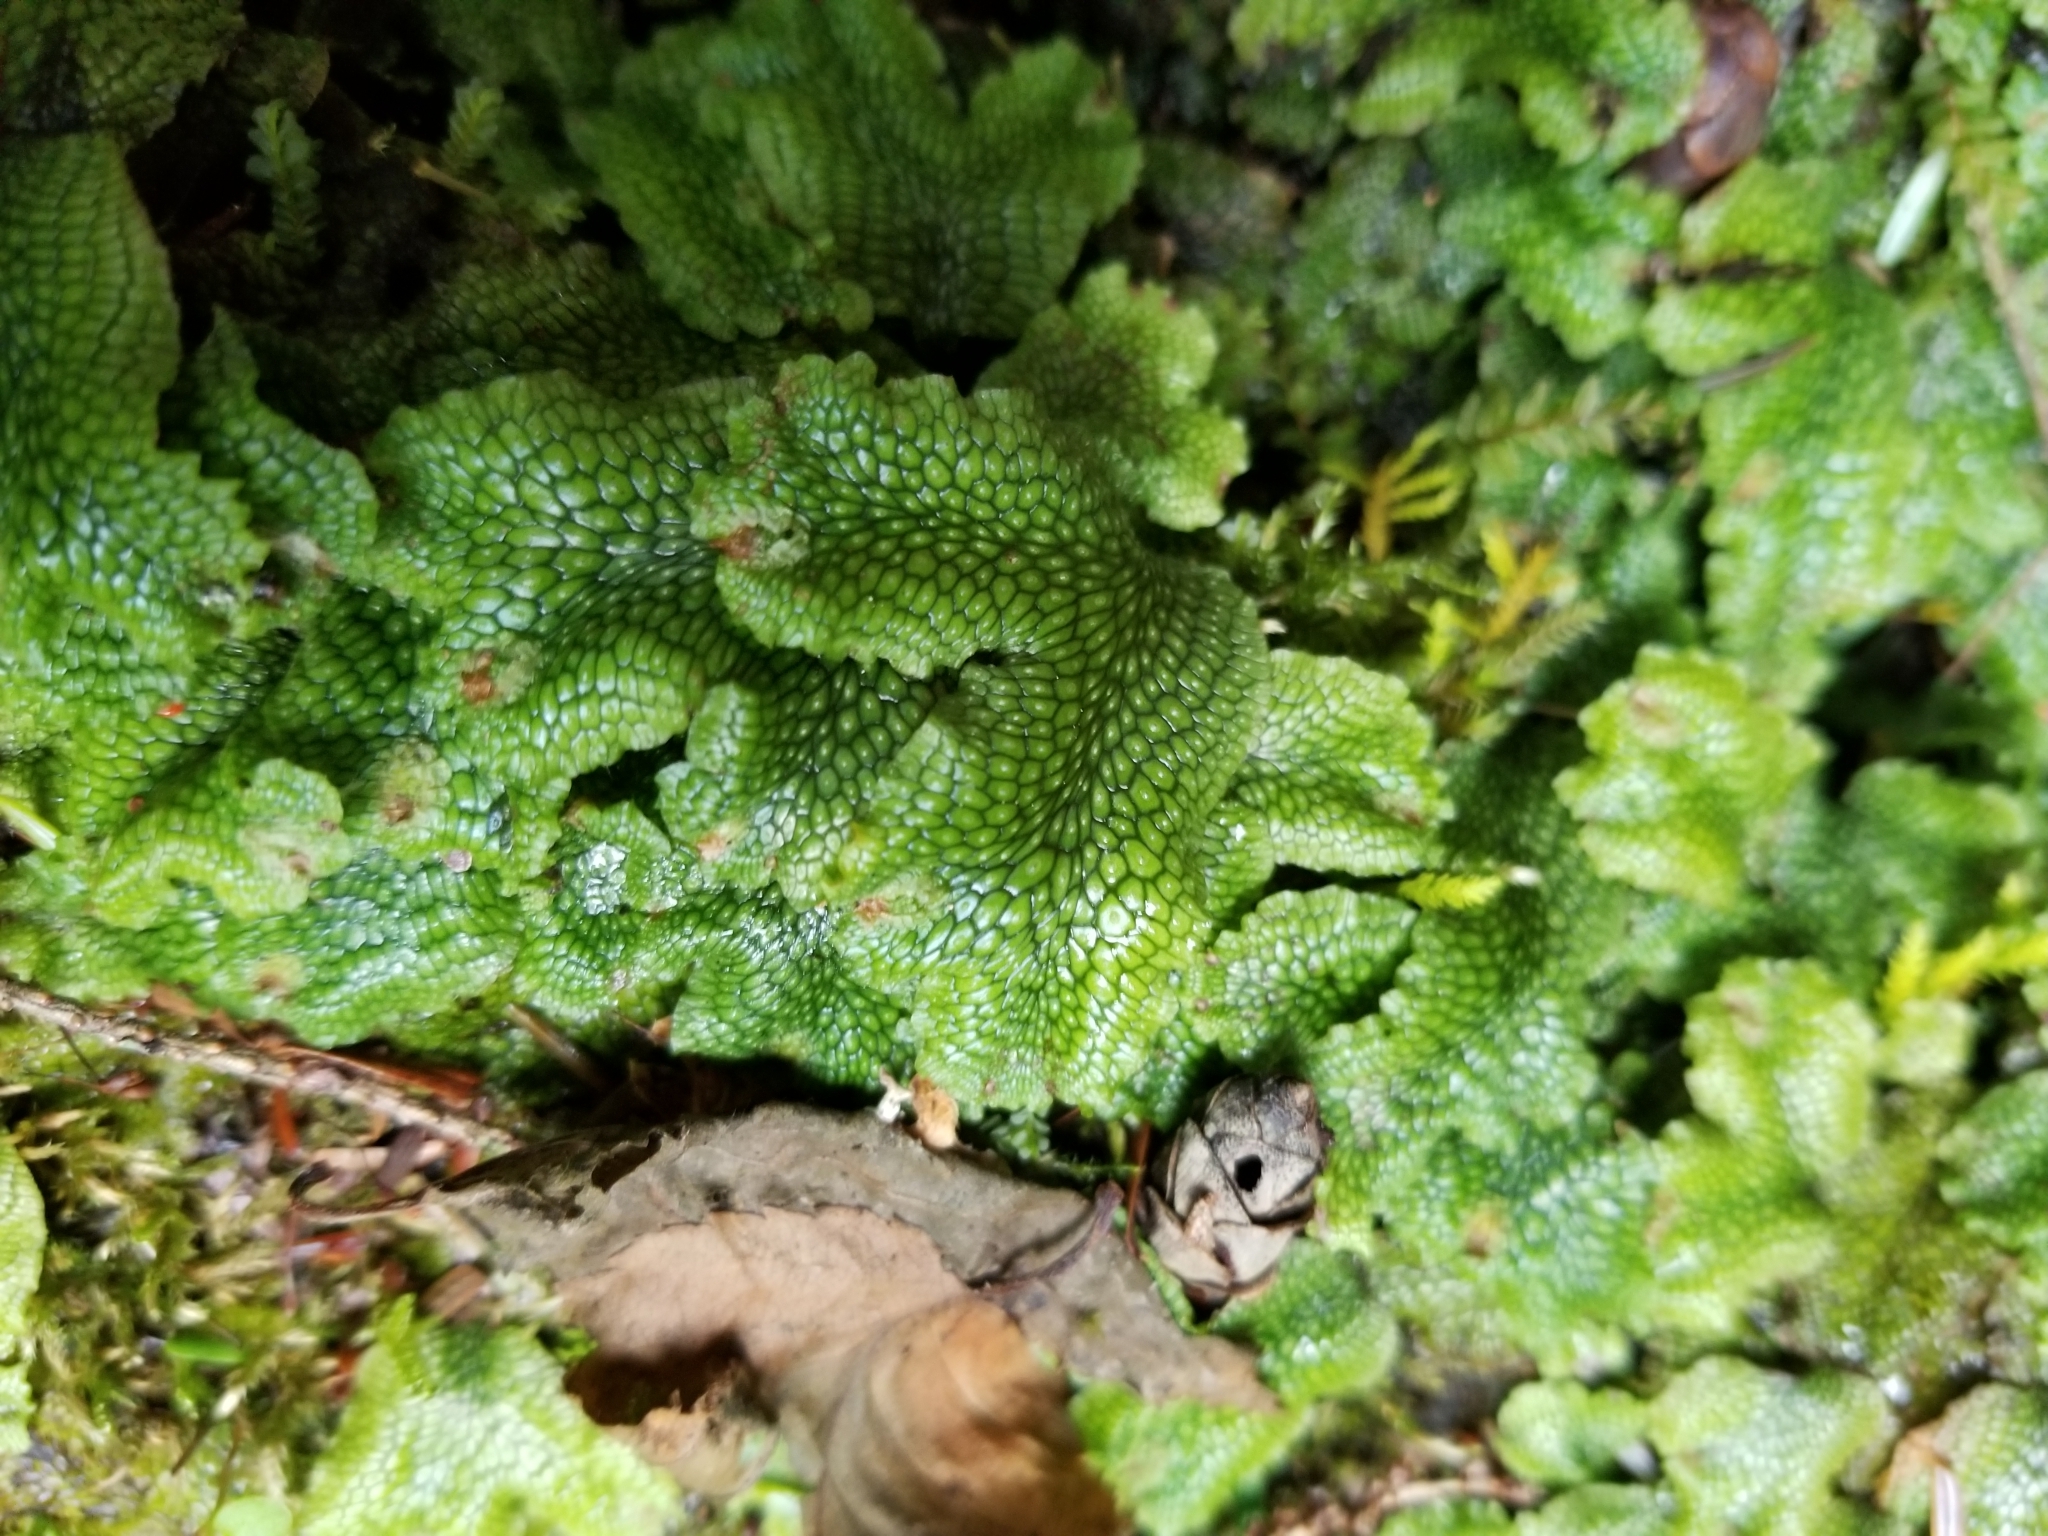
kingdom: Plantae
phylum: Marchantiophyta
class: Marchantiopsida
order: Marchantiales
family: Conocephalaceae
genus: Conocephalum
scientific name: Conocephalum salebrosum
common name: Cat-tongue liverwort
